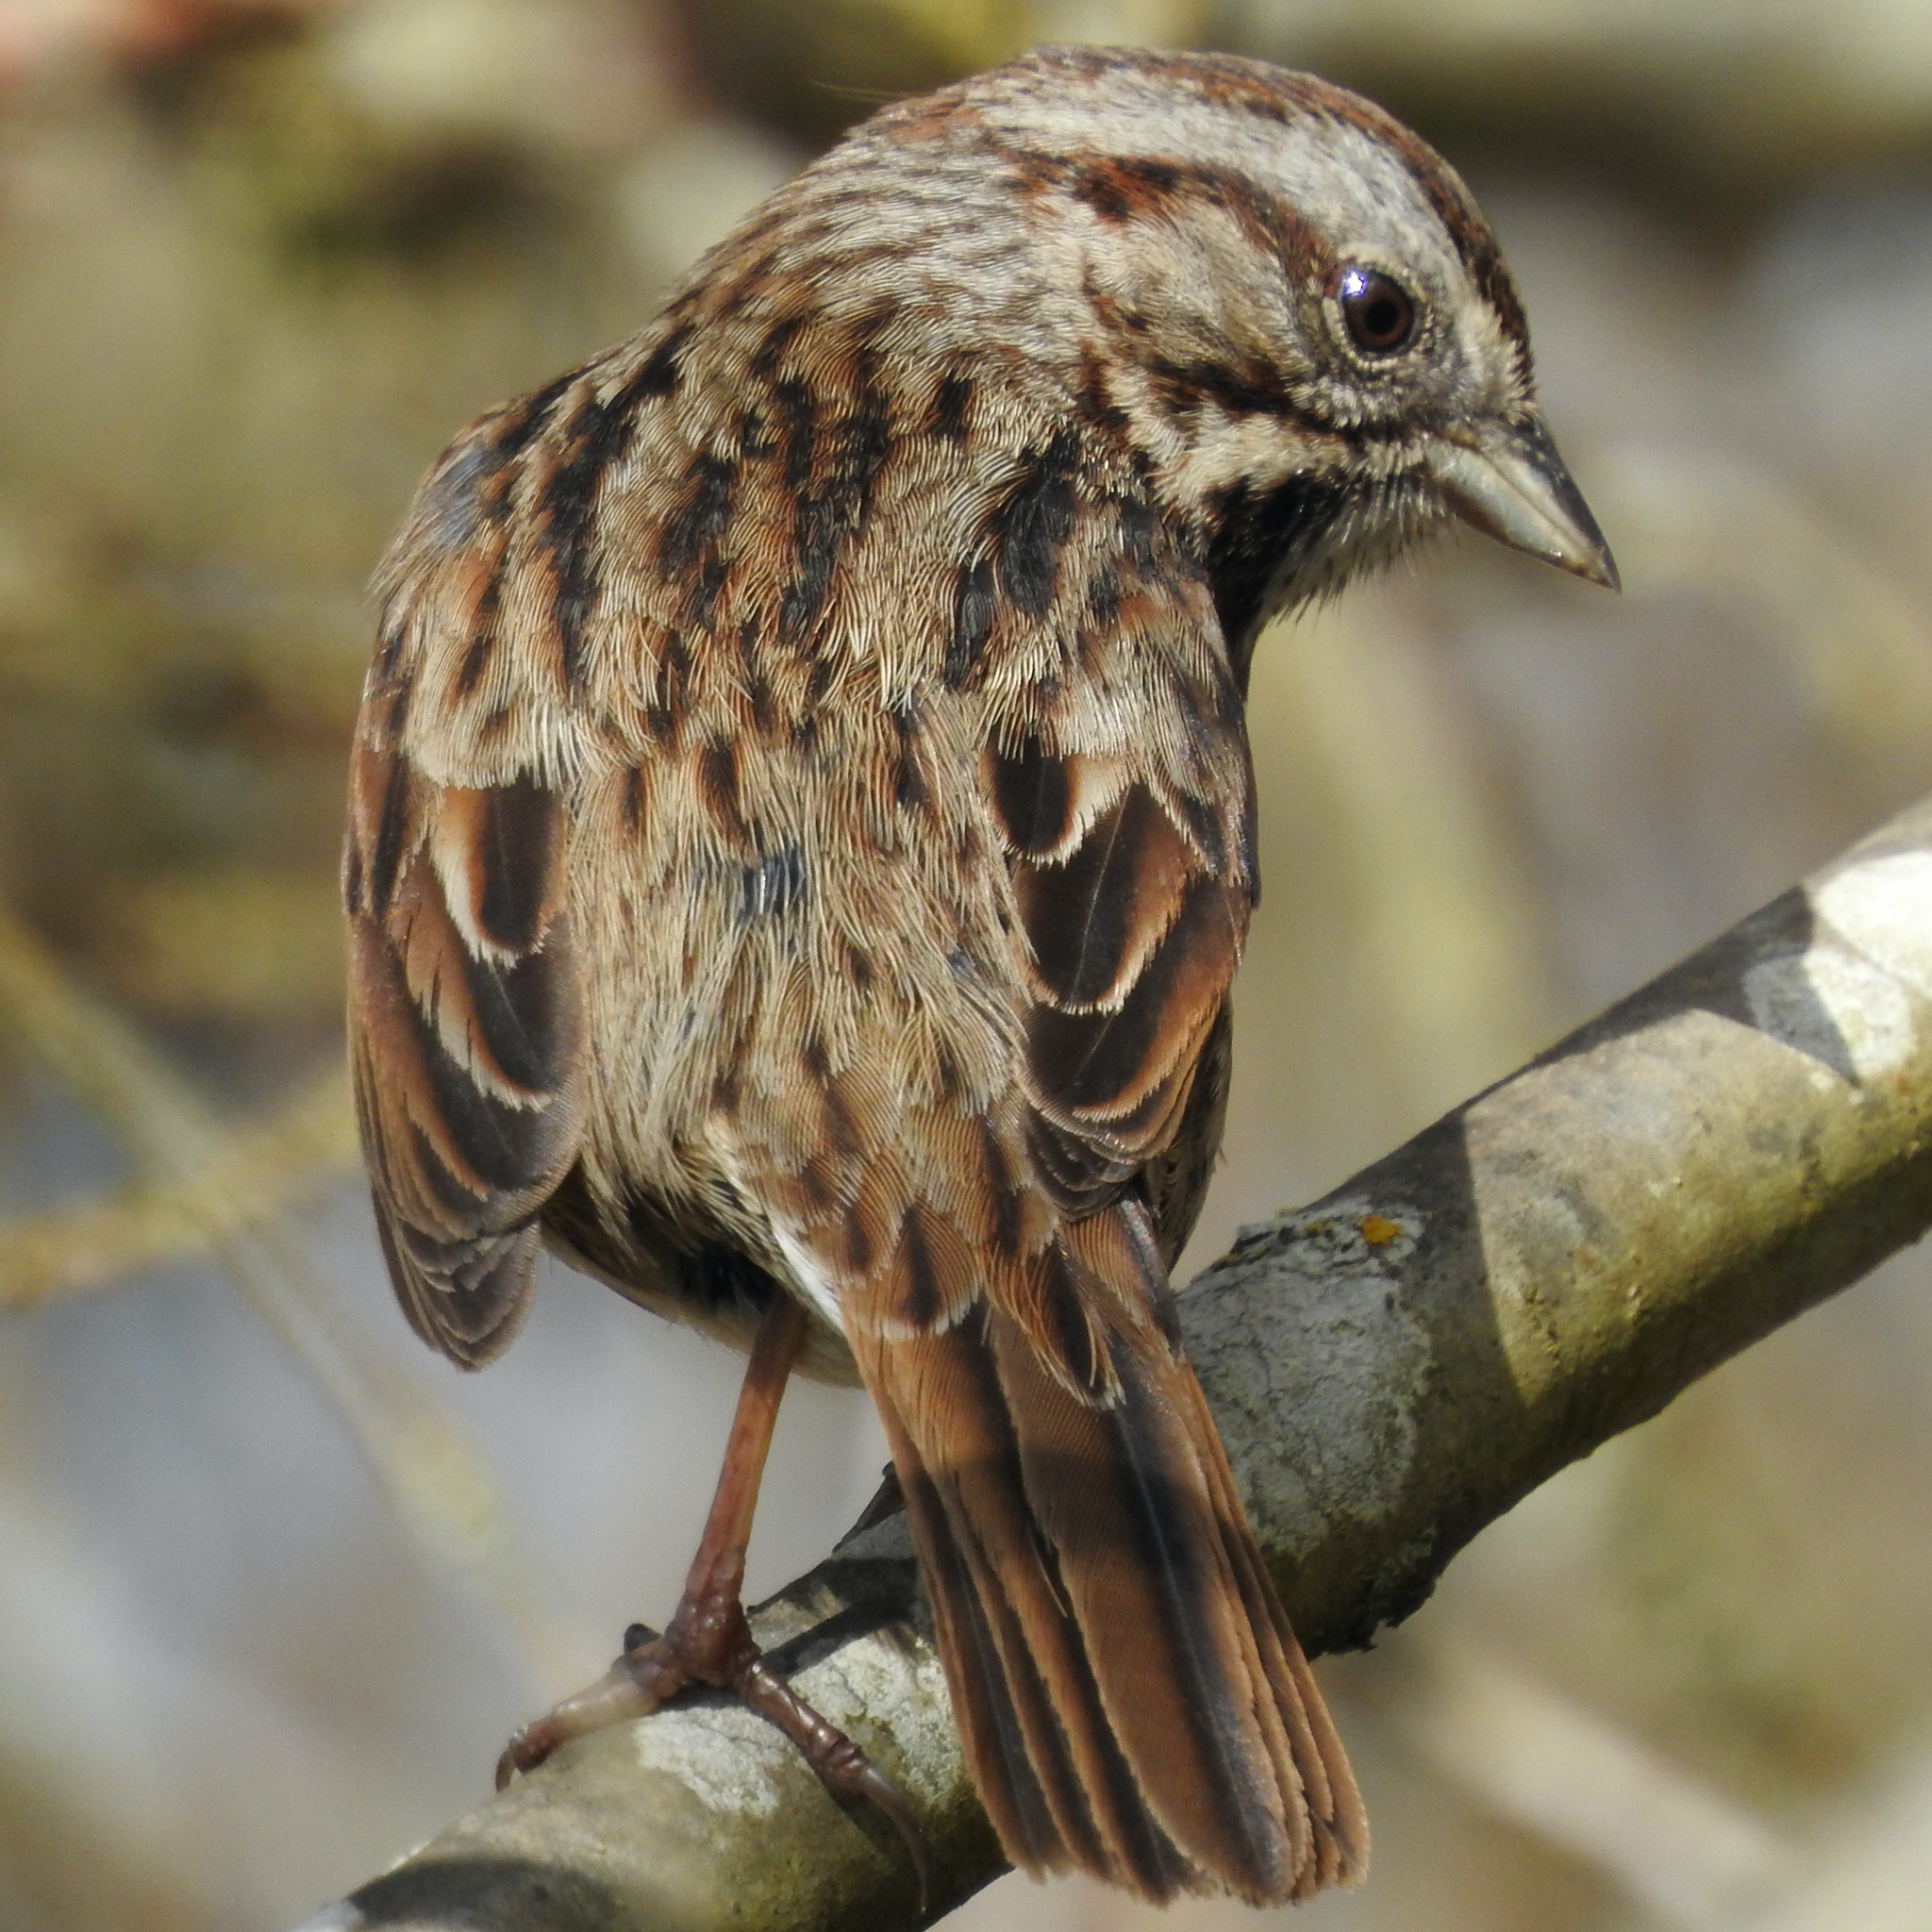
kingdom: Animalia
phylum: Chordata
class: Aves
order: Passeriformes
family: Passerellidae
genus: Melospiza
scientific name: Melospiza melodia
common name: Song sparrow
